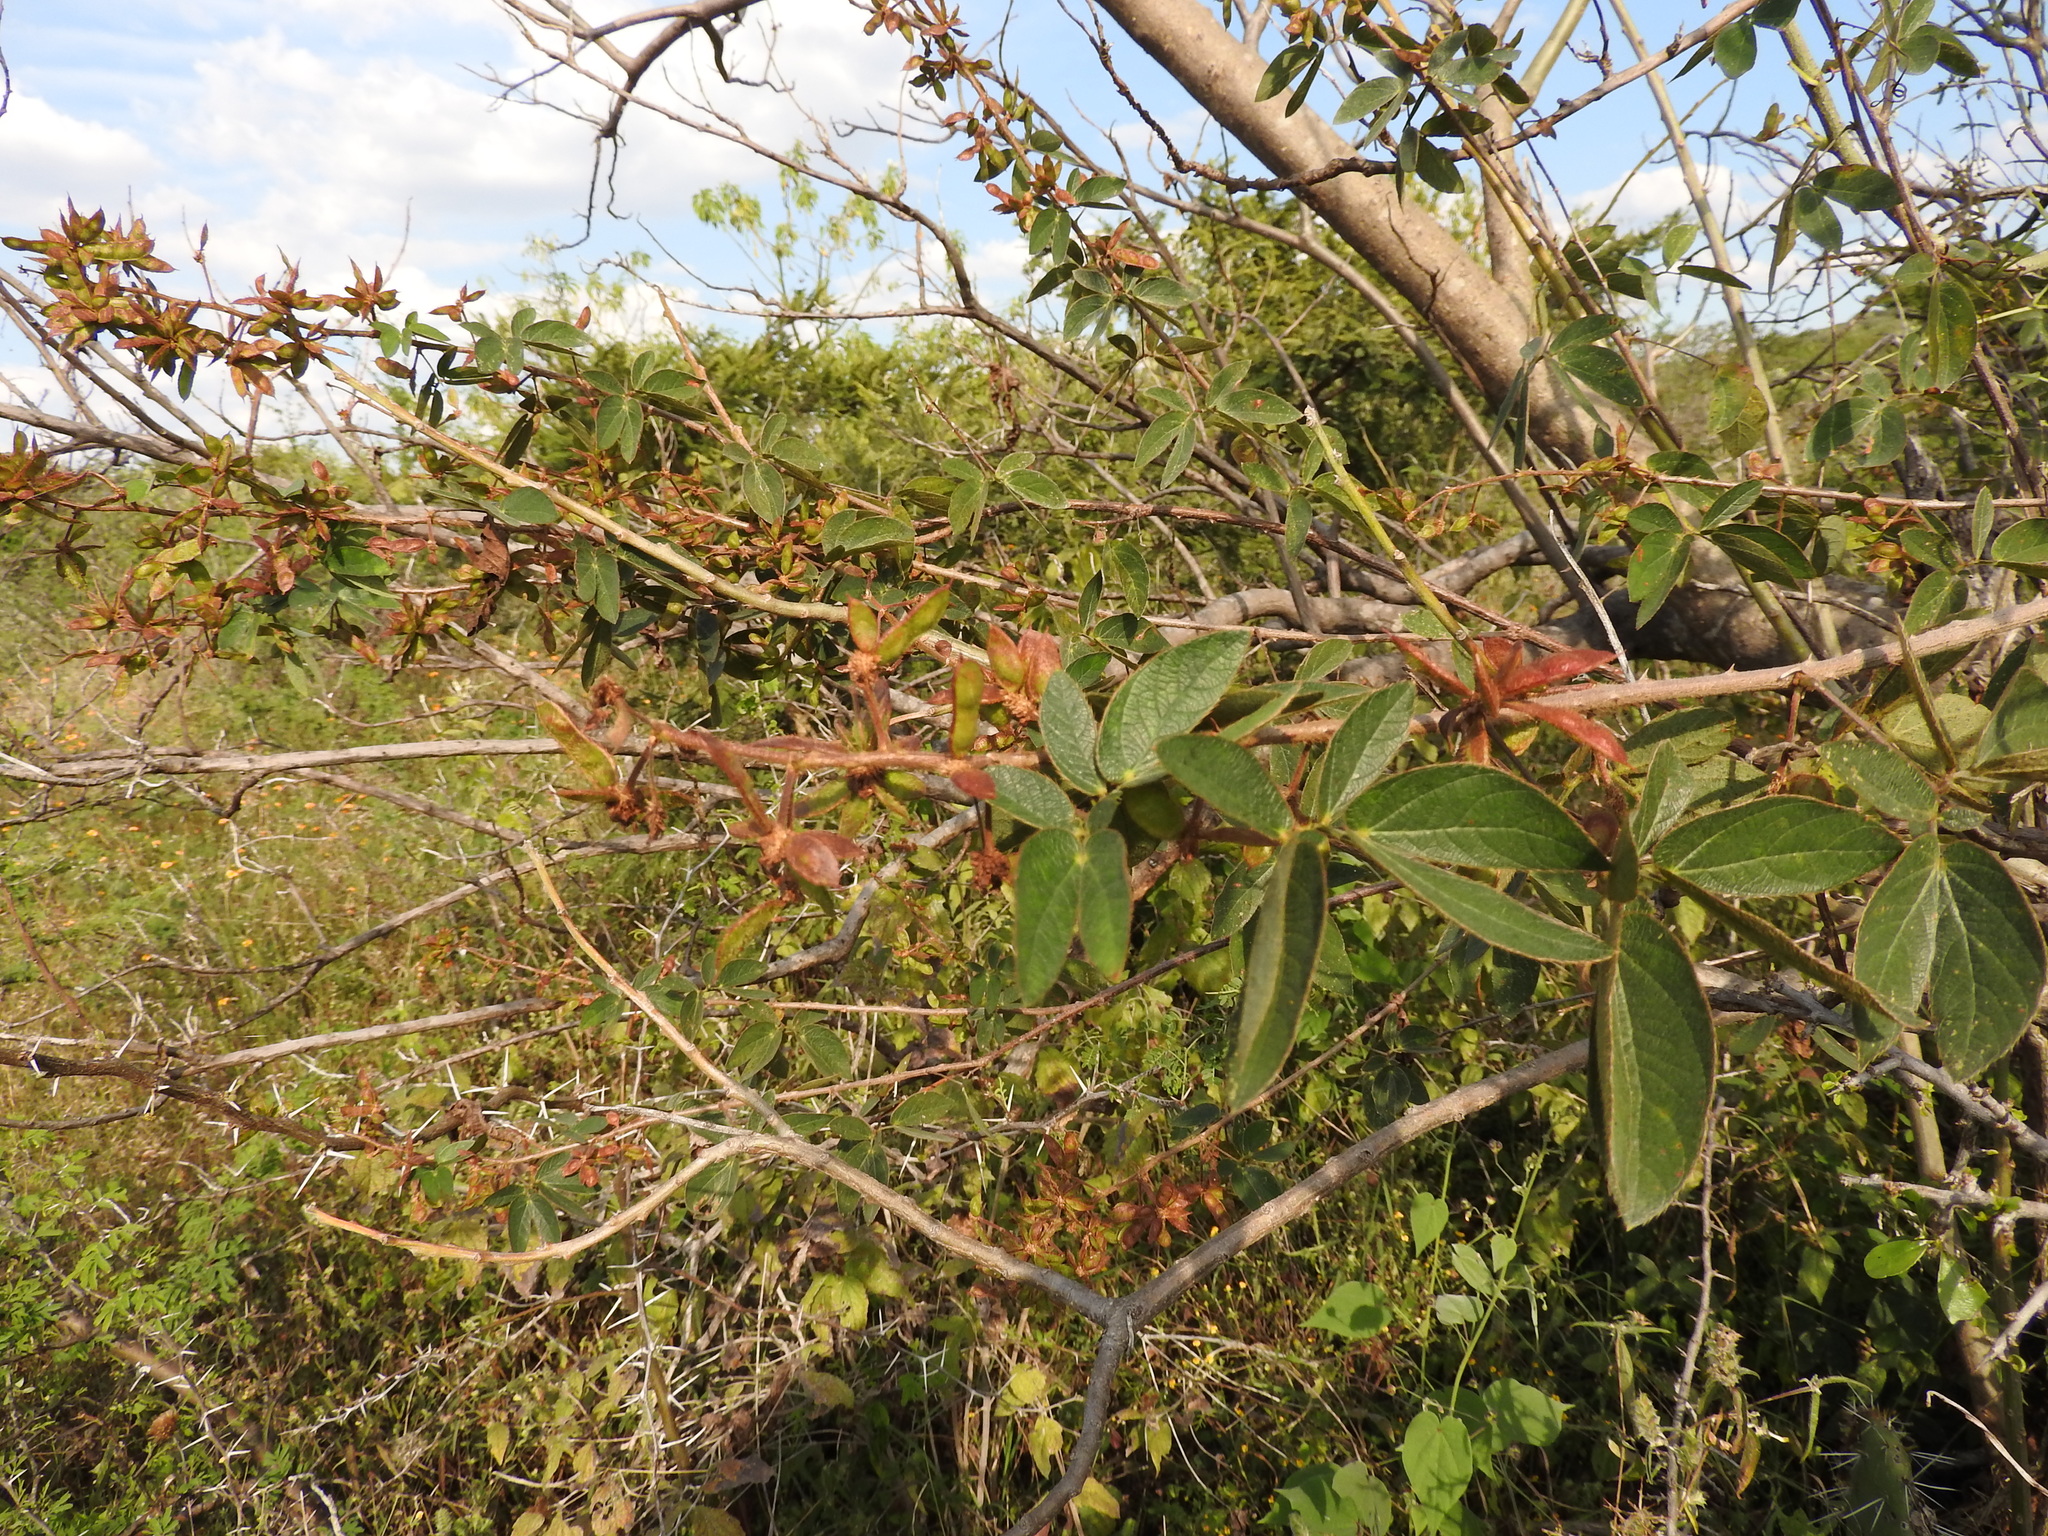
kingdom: Plantae
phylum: Tracheophyta
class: Magnoliopsida
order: Fabales
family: Fabaceae
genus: Mimosa
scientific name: Mimosa albida
